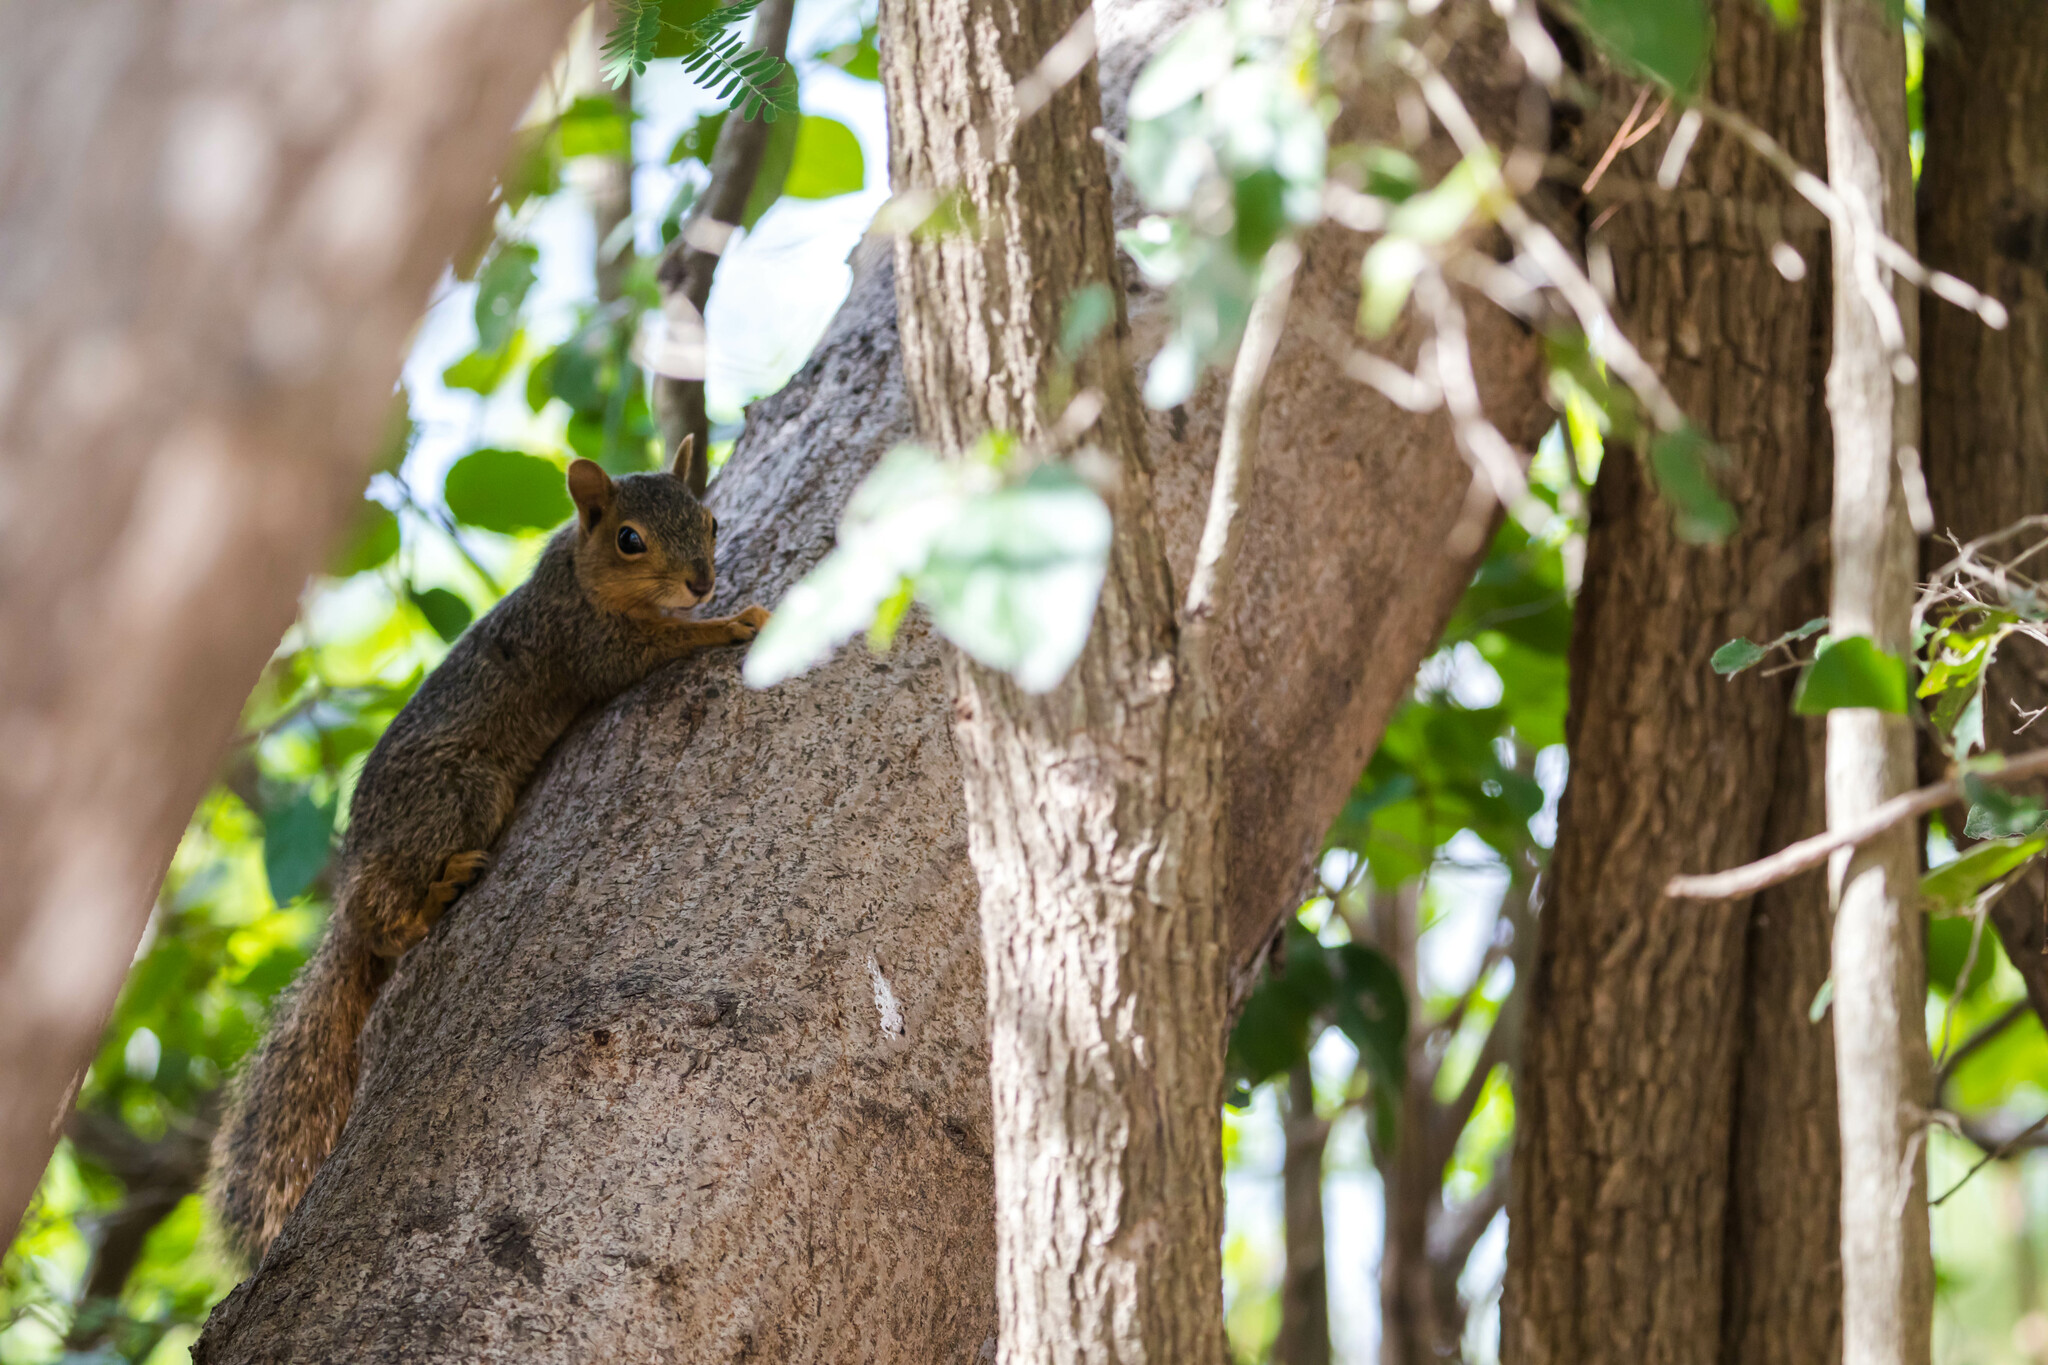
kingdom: Animalia
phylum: Chordata
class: Mammalia
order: Rodentia
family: Sciuridae
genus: Sciurus
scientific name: Sciurus niger
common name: Fox squirrel
